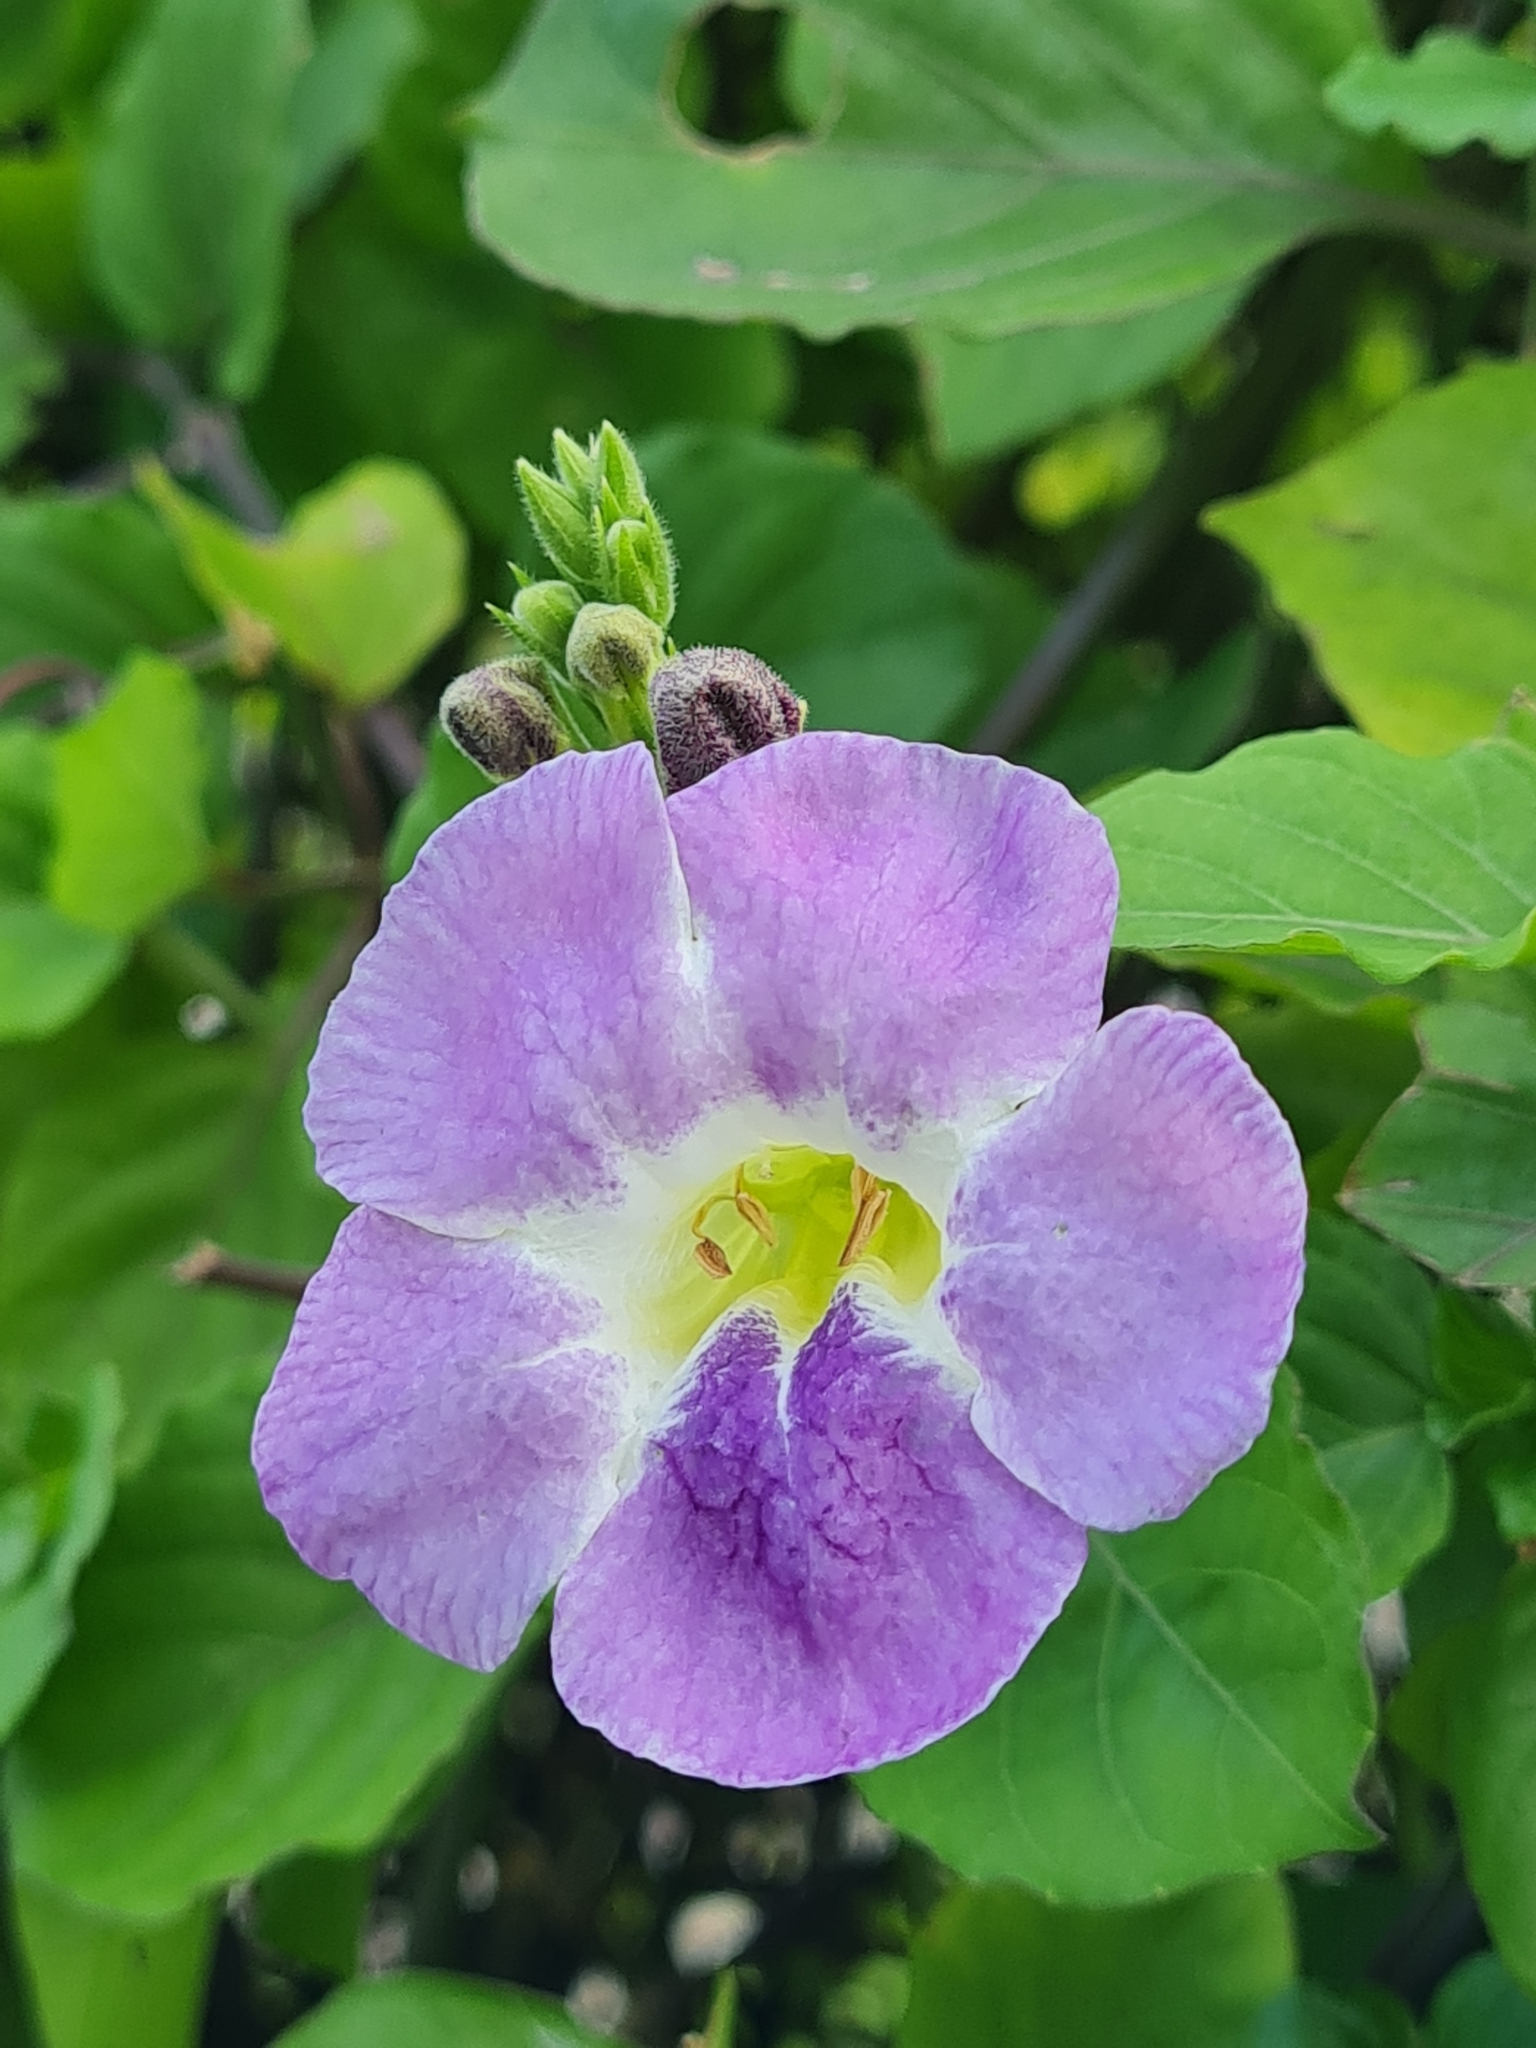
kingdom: Plantae
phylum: Tracheophyta
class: Magnoliopsida
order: Lamiales
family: Acanthaceae
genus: Asystasia
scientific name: Asystasia gangetica
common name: Chinese violet
